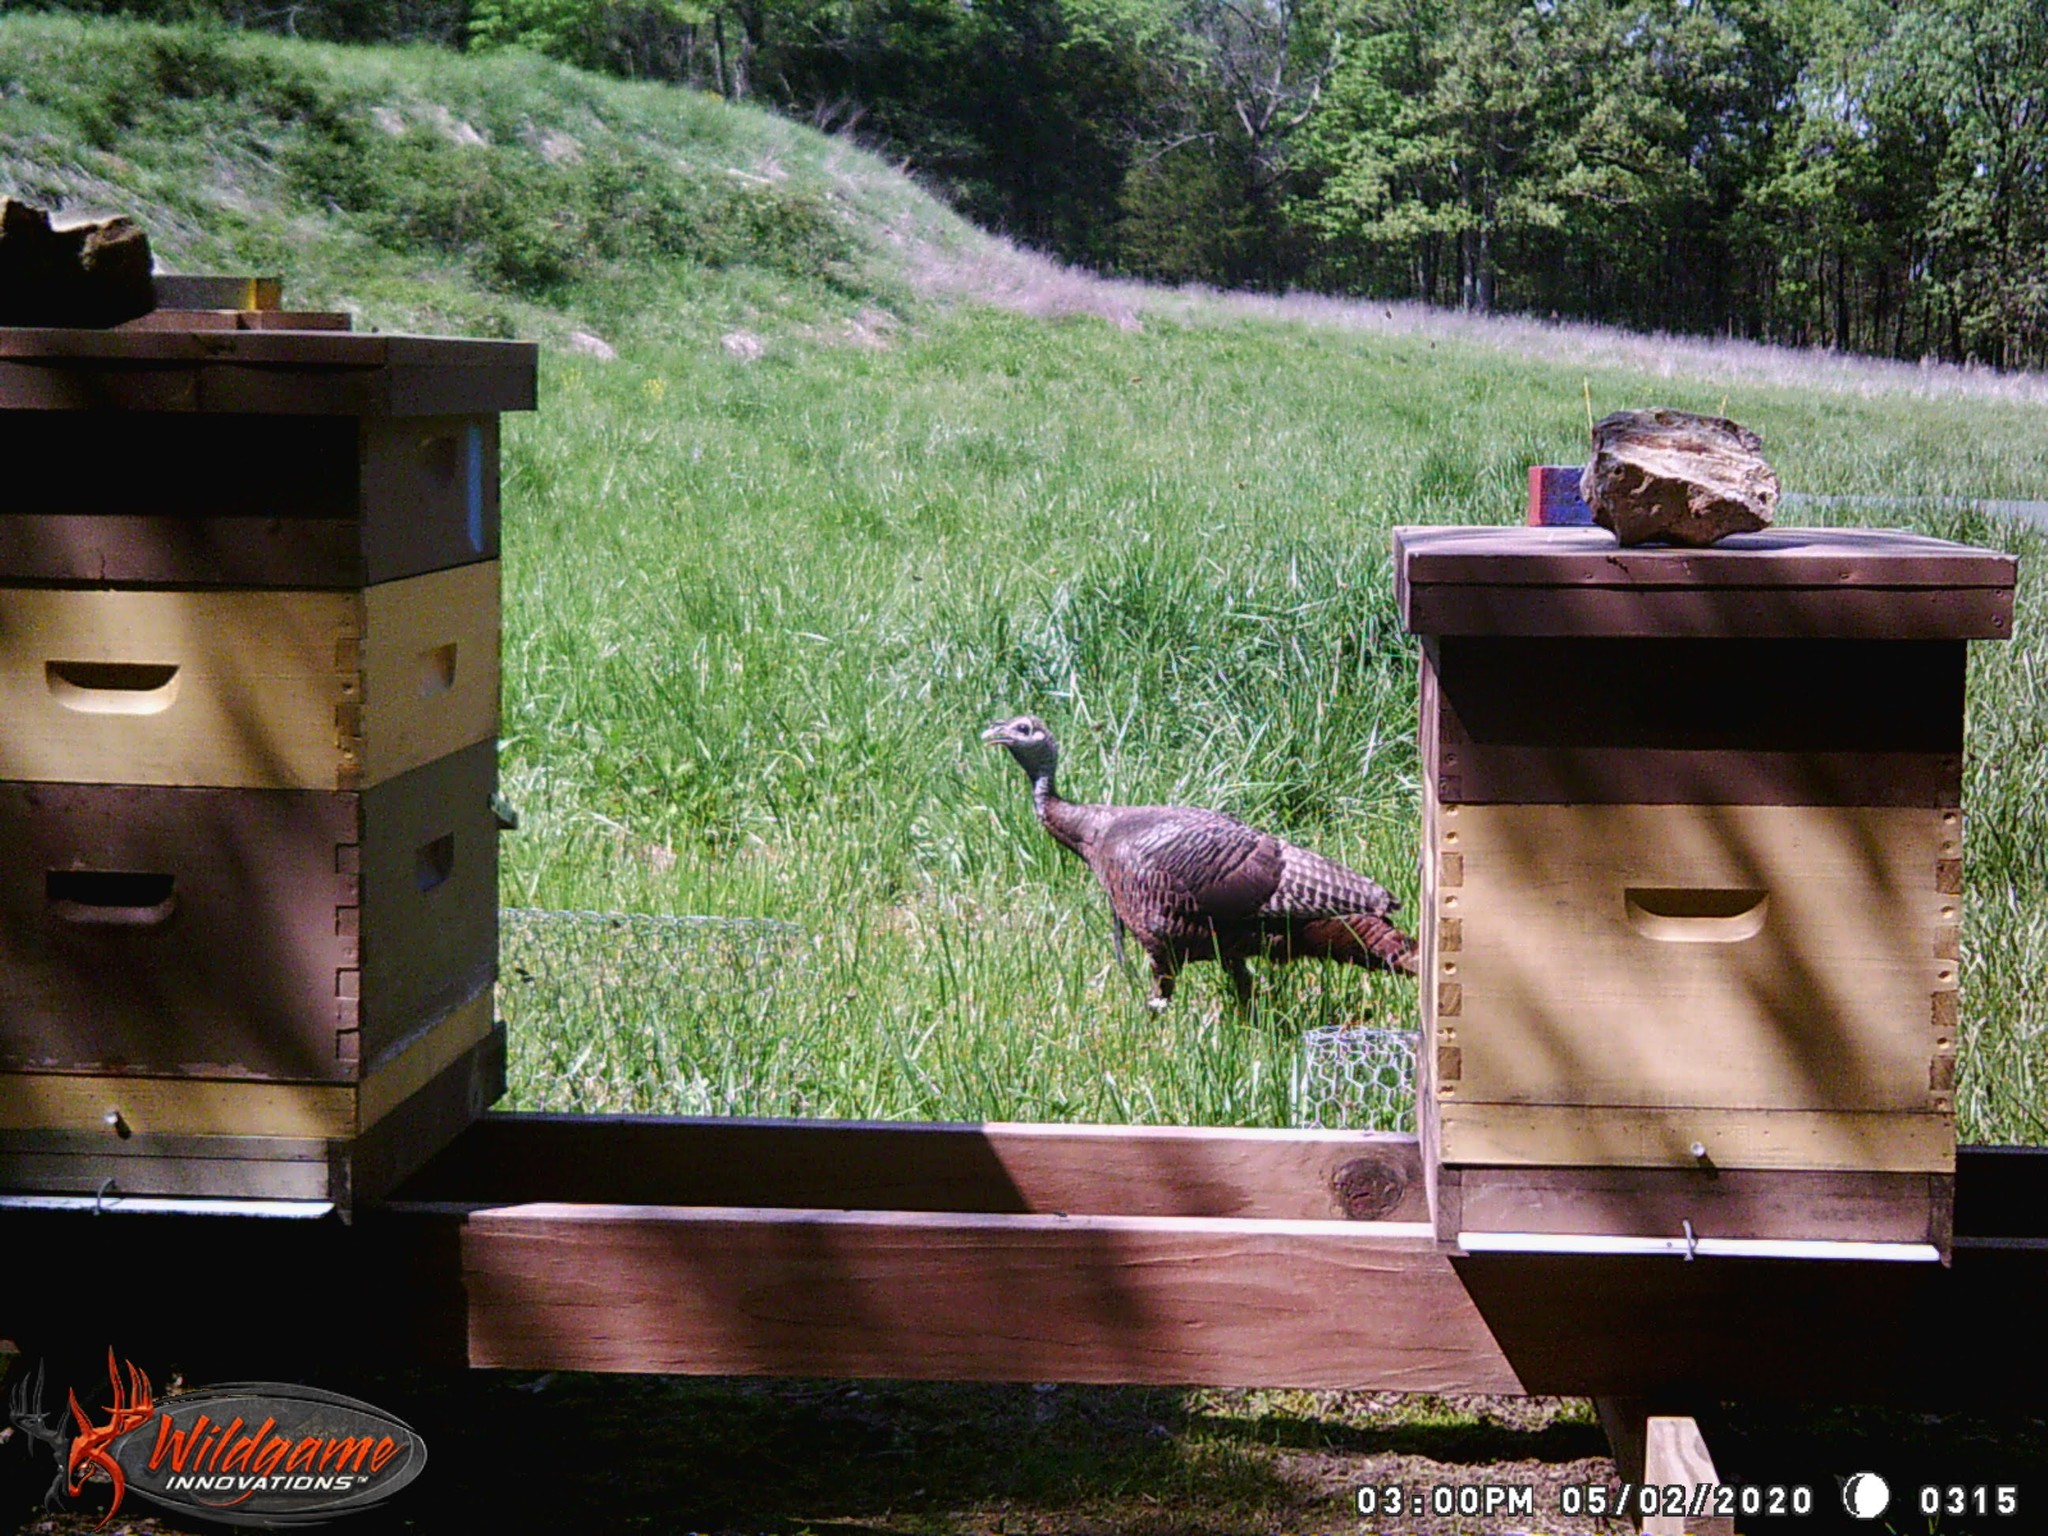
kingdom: Animalia
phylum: Chordata
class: Aves
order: Galliformes
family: Phasianidae
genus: Meleagris
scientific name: Meleagris gallopavo
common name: Wild turkey
